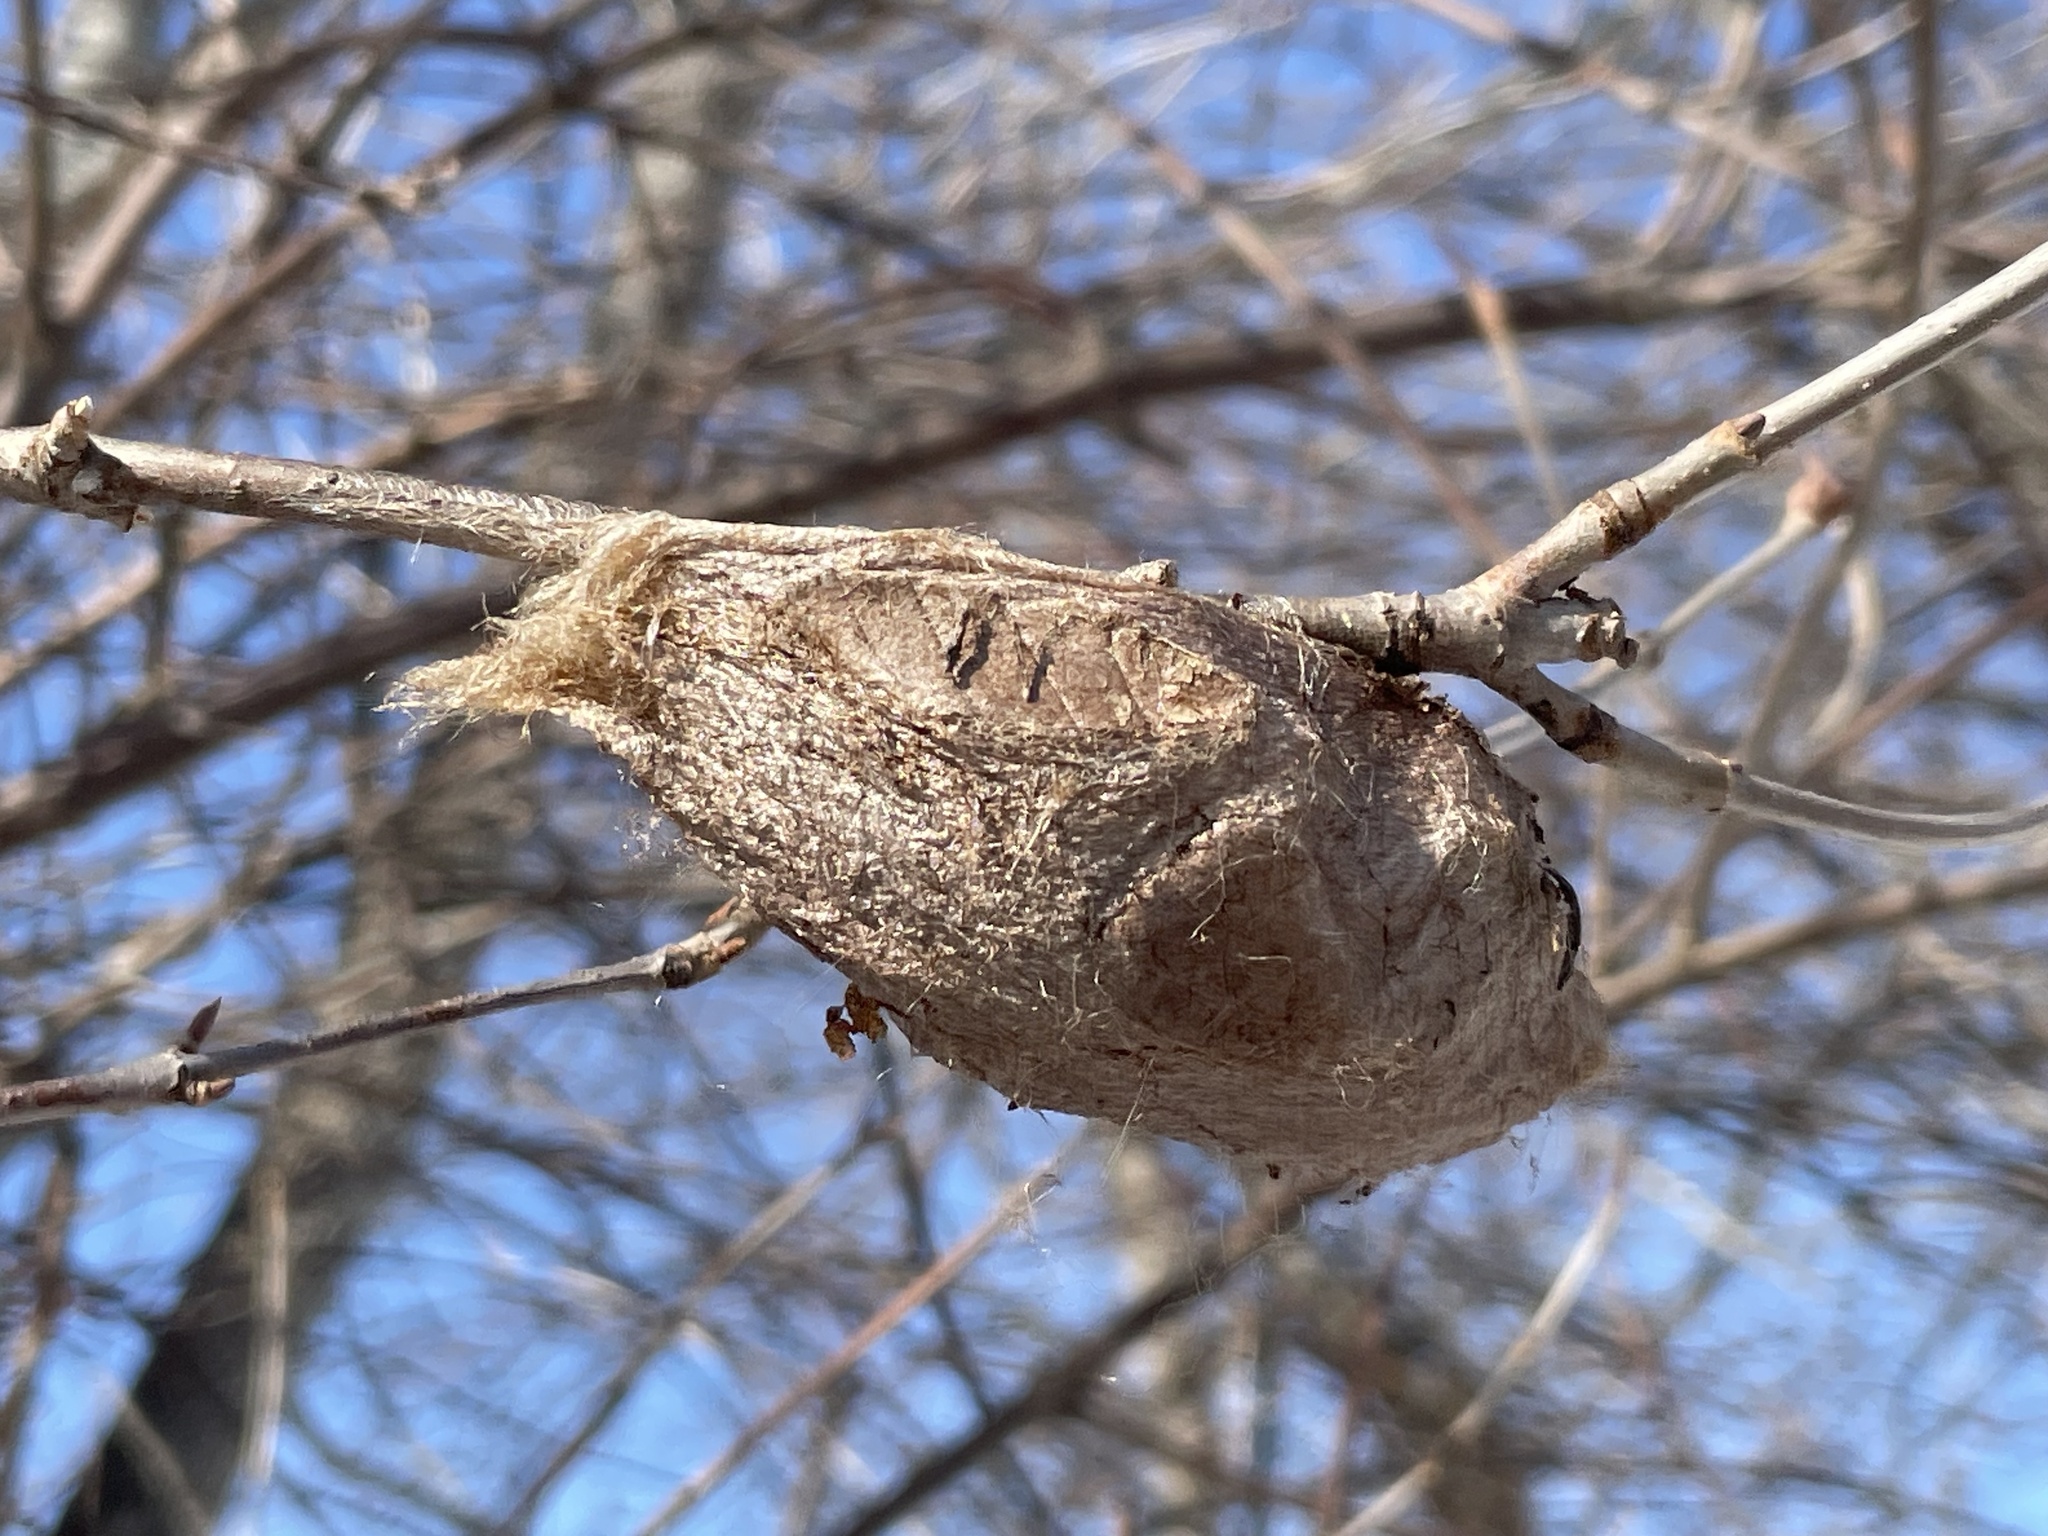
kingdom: Animalia
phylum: Arthropoda
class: Insecta
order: Lepidoptera
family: Saturniidae
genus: Hyalophora
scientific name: Hyalophora cecropia
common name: Cecropia silkmoth
